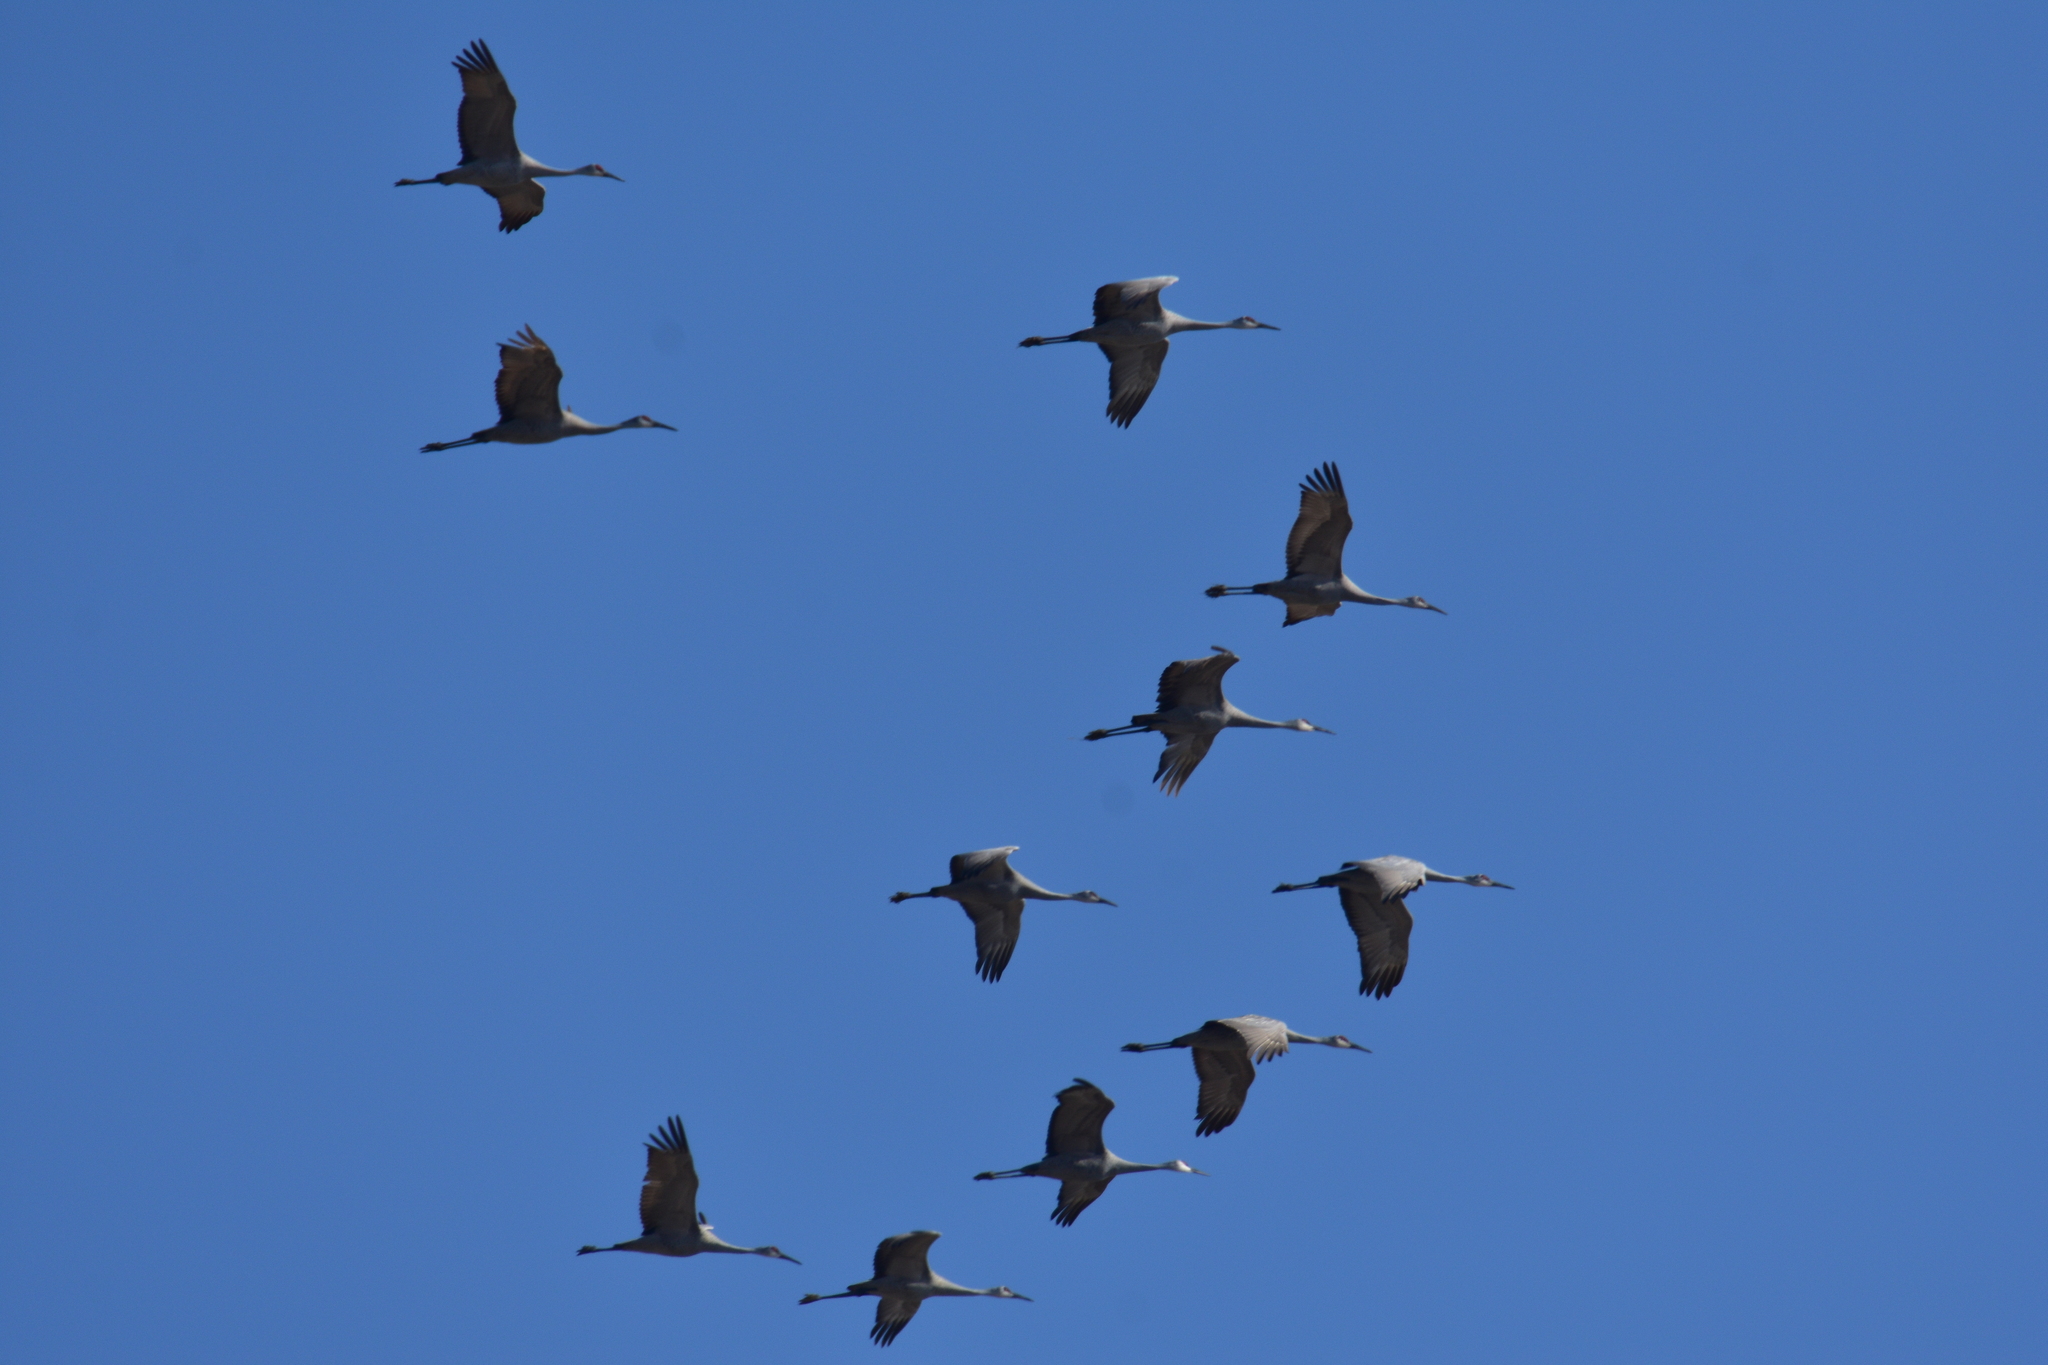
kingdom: Animalia
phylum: Chordata
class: Aves
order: Gruiformes
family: Gruidae
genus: Grus
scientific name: Grus canadensis
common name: Sandhill crane
